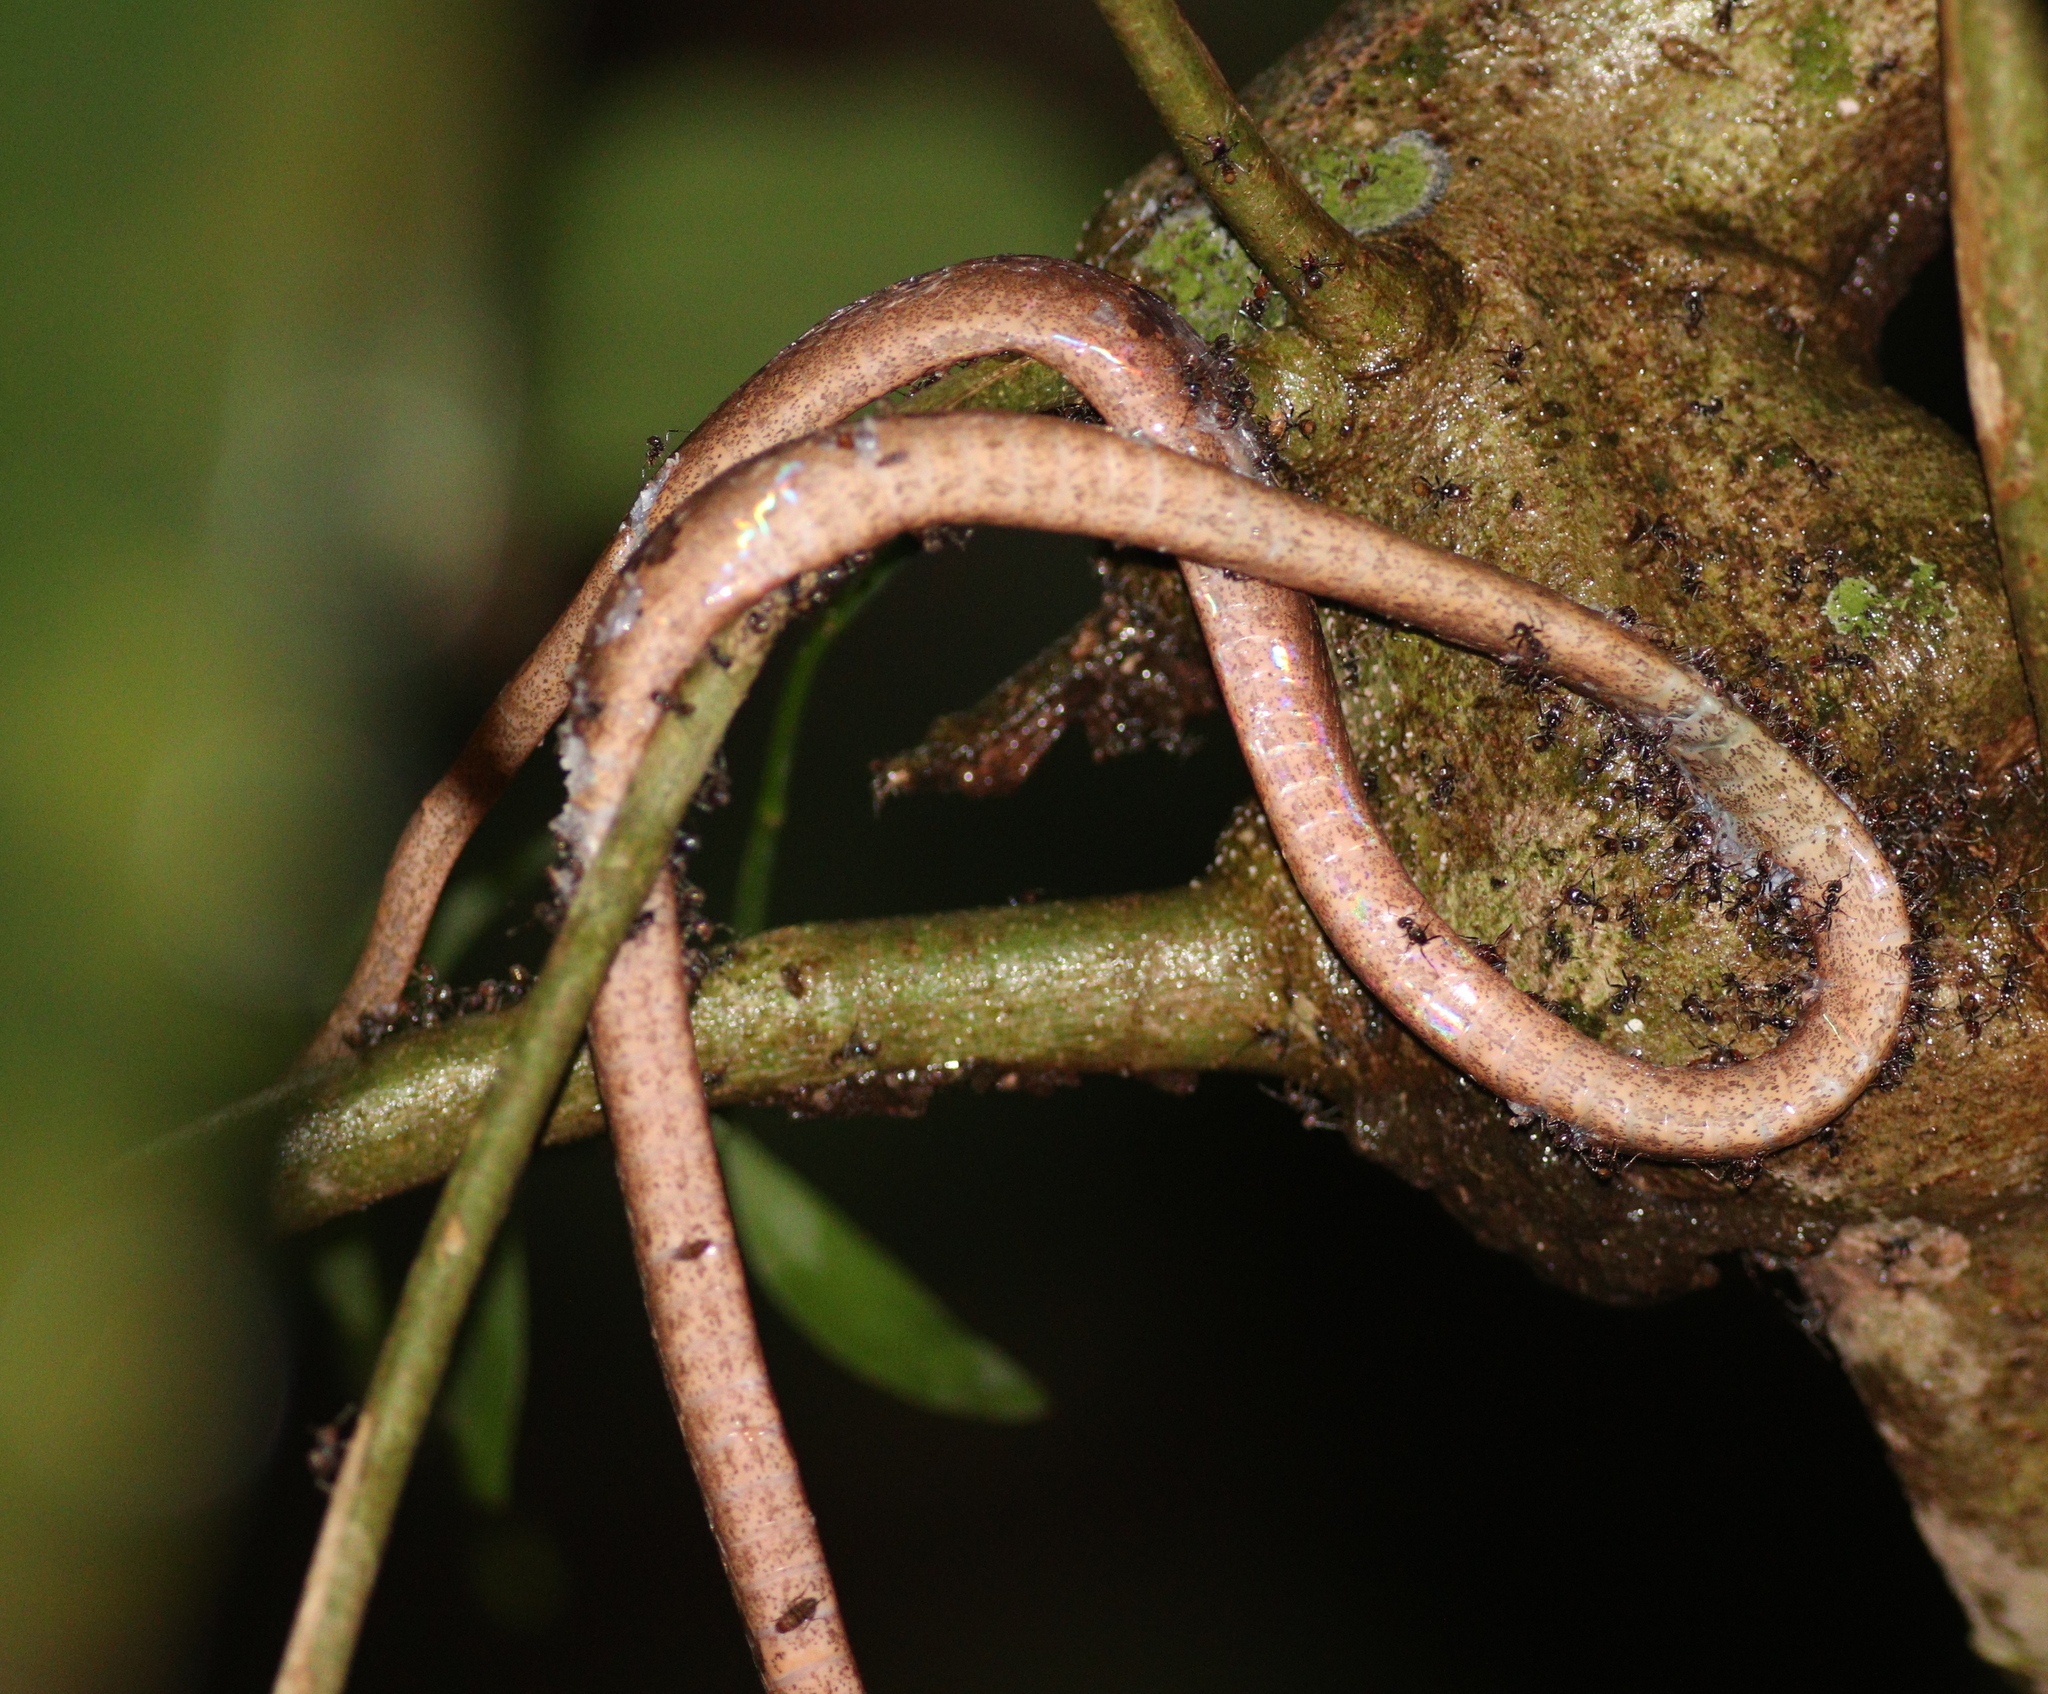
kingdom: Animalia
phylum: Chordata
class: Squamata
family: Colubridae
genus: Imantodes
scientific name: Imantodes cenchoa
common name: Blunthead tree snake
